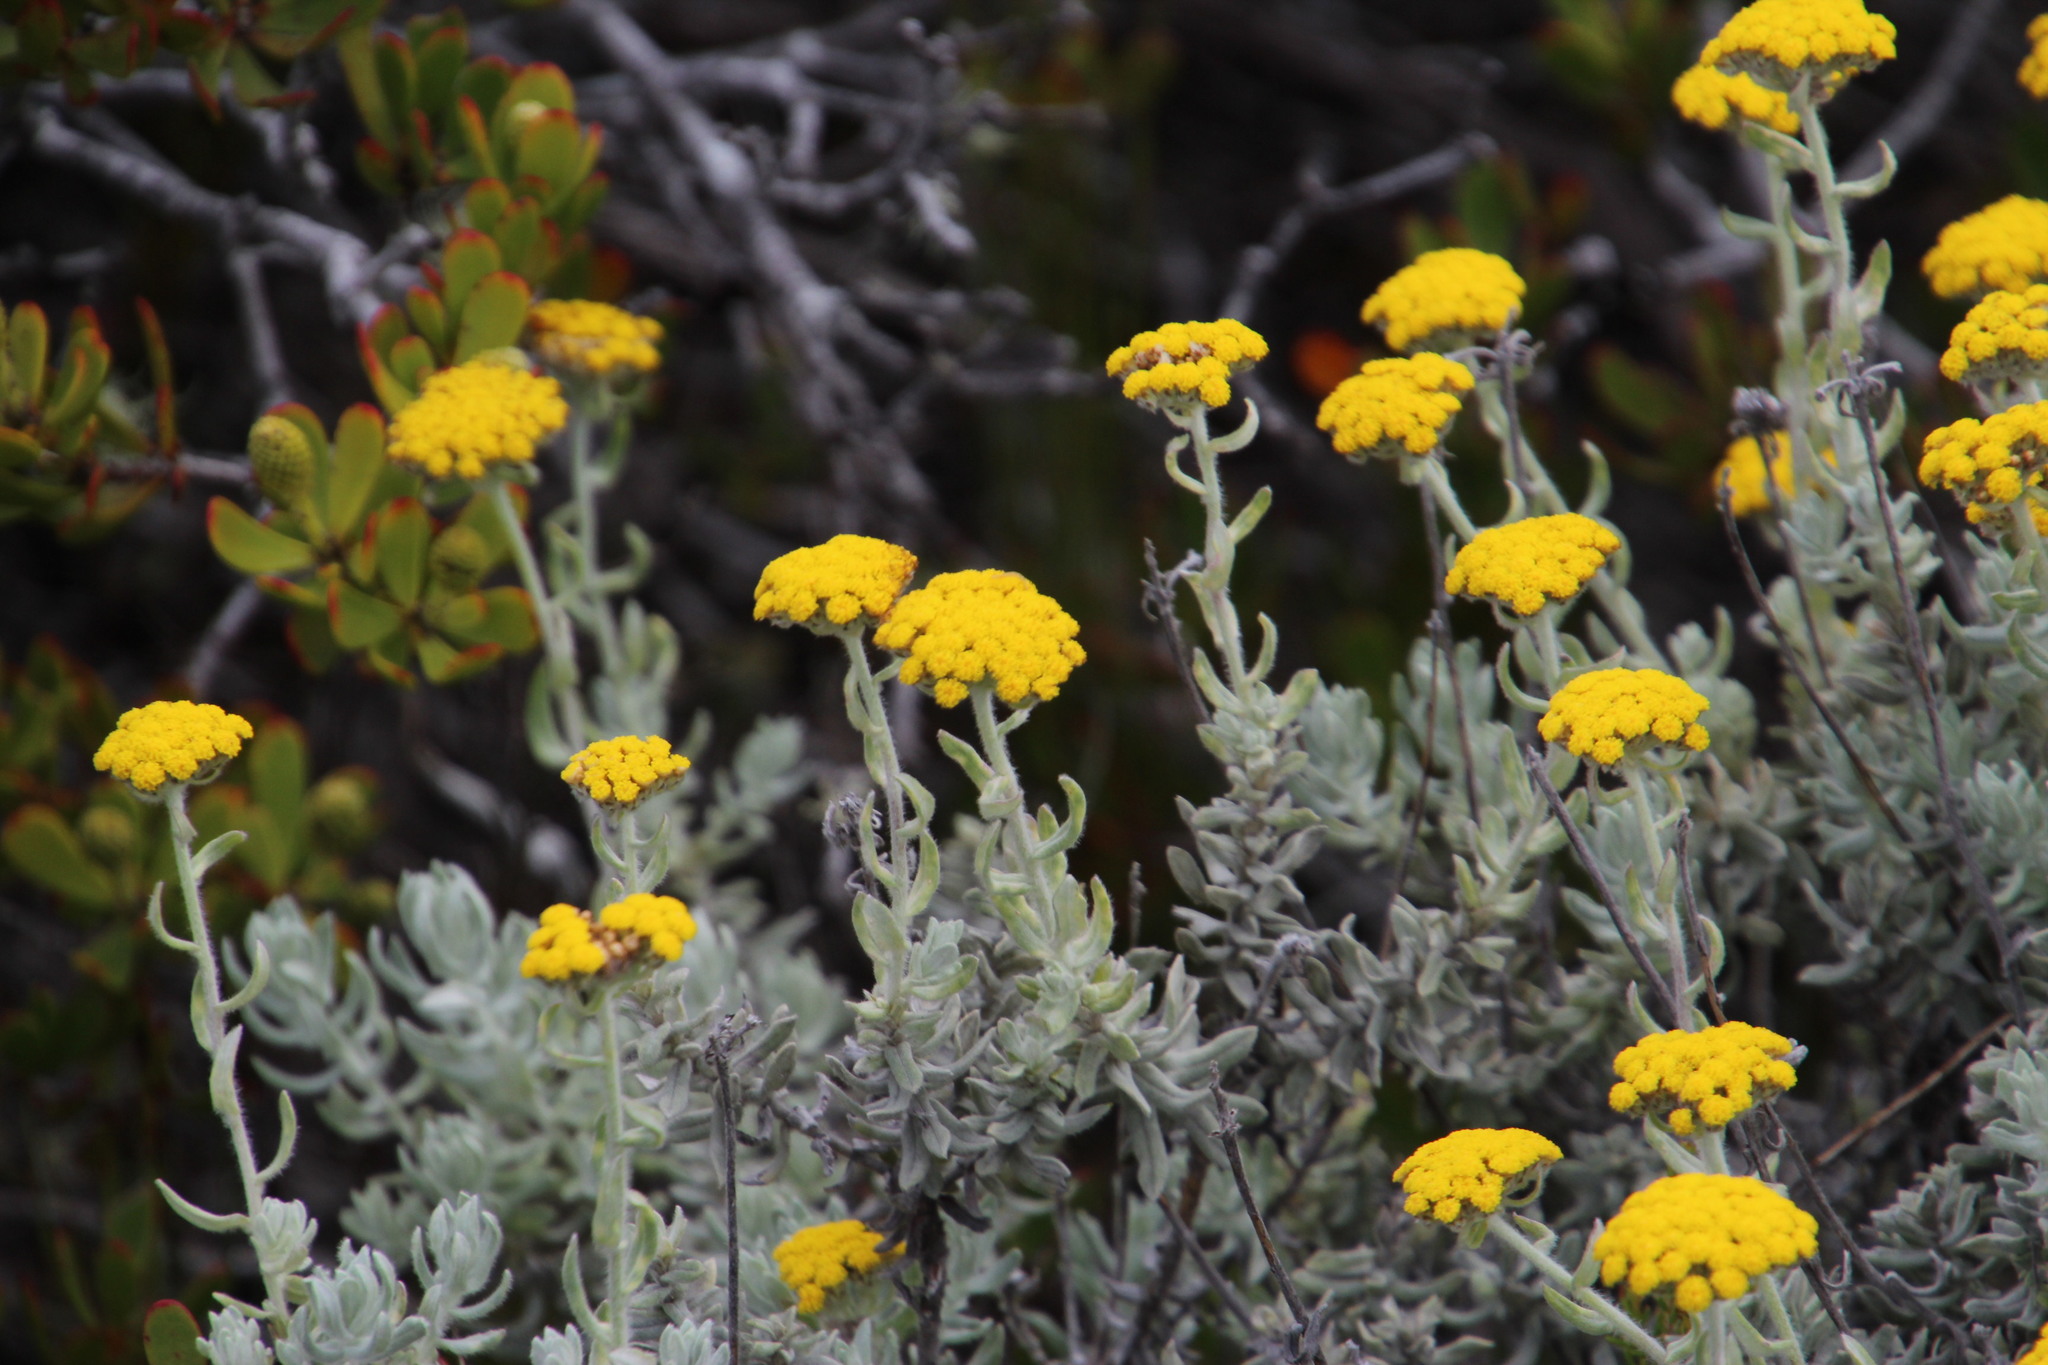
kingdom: Plantae
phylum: Tracheophyta
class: Magnoliopsida
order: Asterales
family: Asteraceae
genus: Helichrysum
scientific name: Helichrysum dasyanthum
